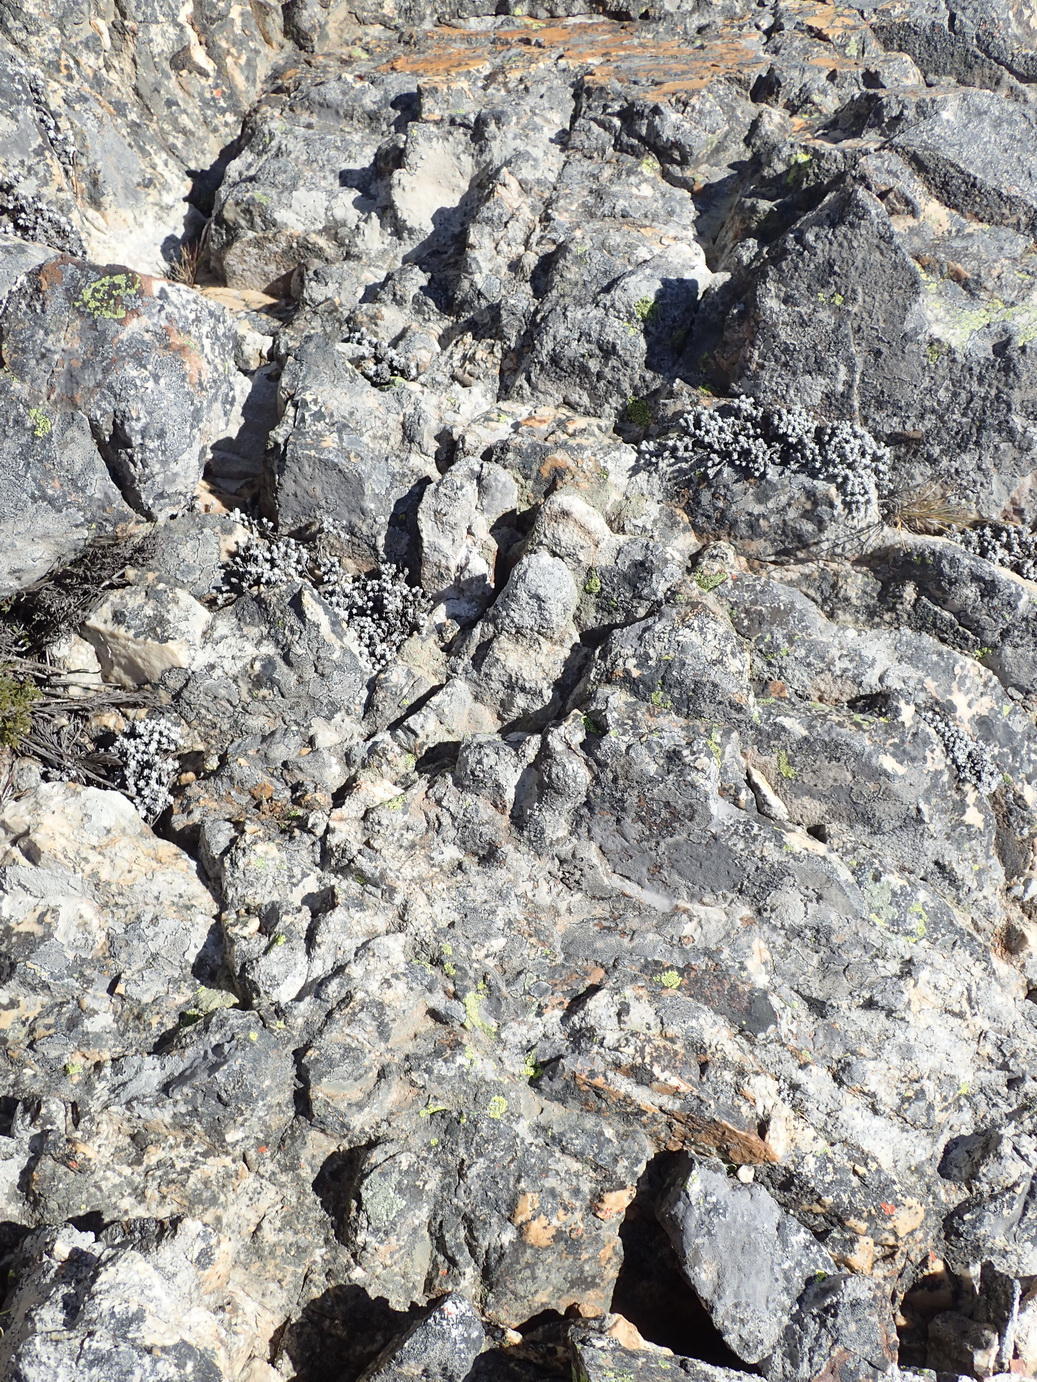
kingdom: Plantae
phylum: Tracheophyta
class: Magnoliopsida
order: Asterales
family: Asteraceae
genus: Helichrysum
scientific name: Helichrysum saxicola
